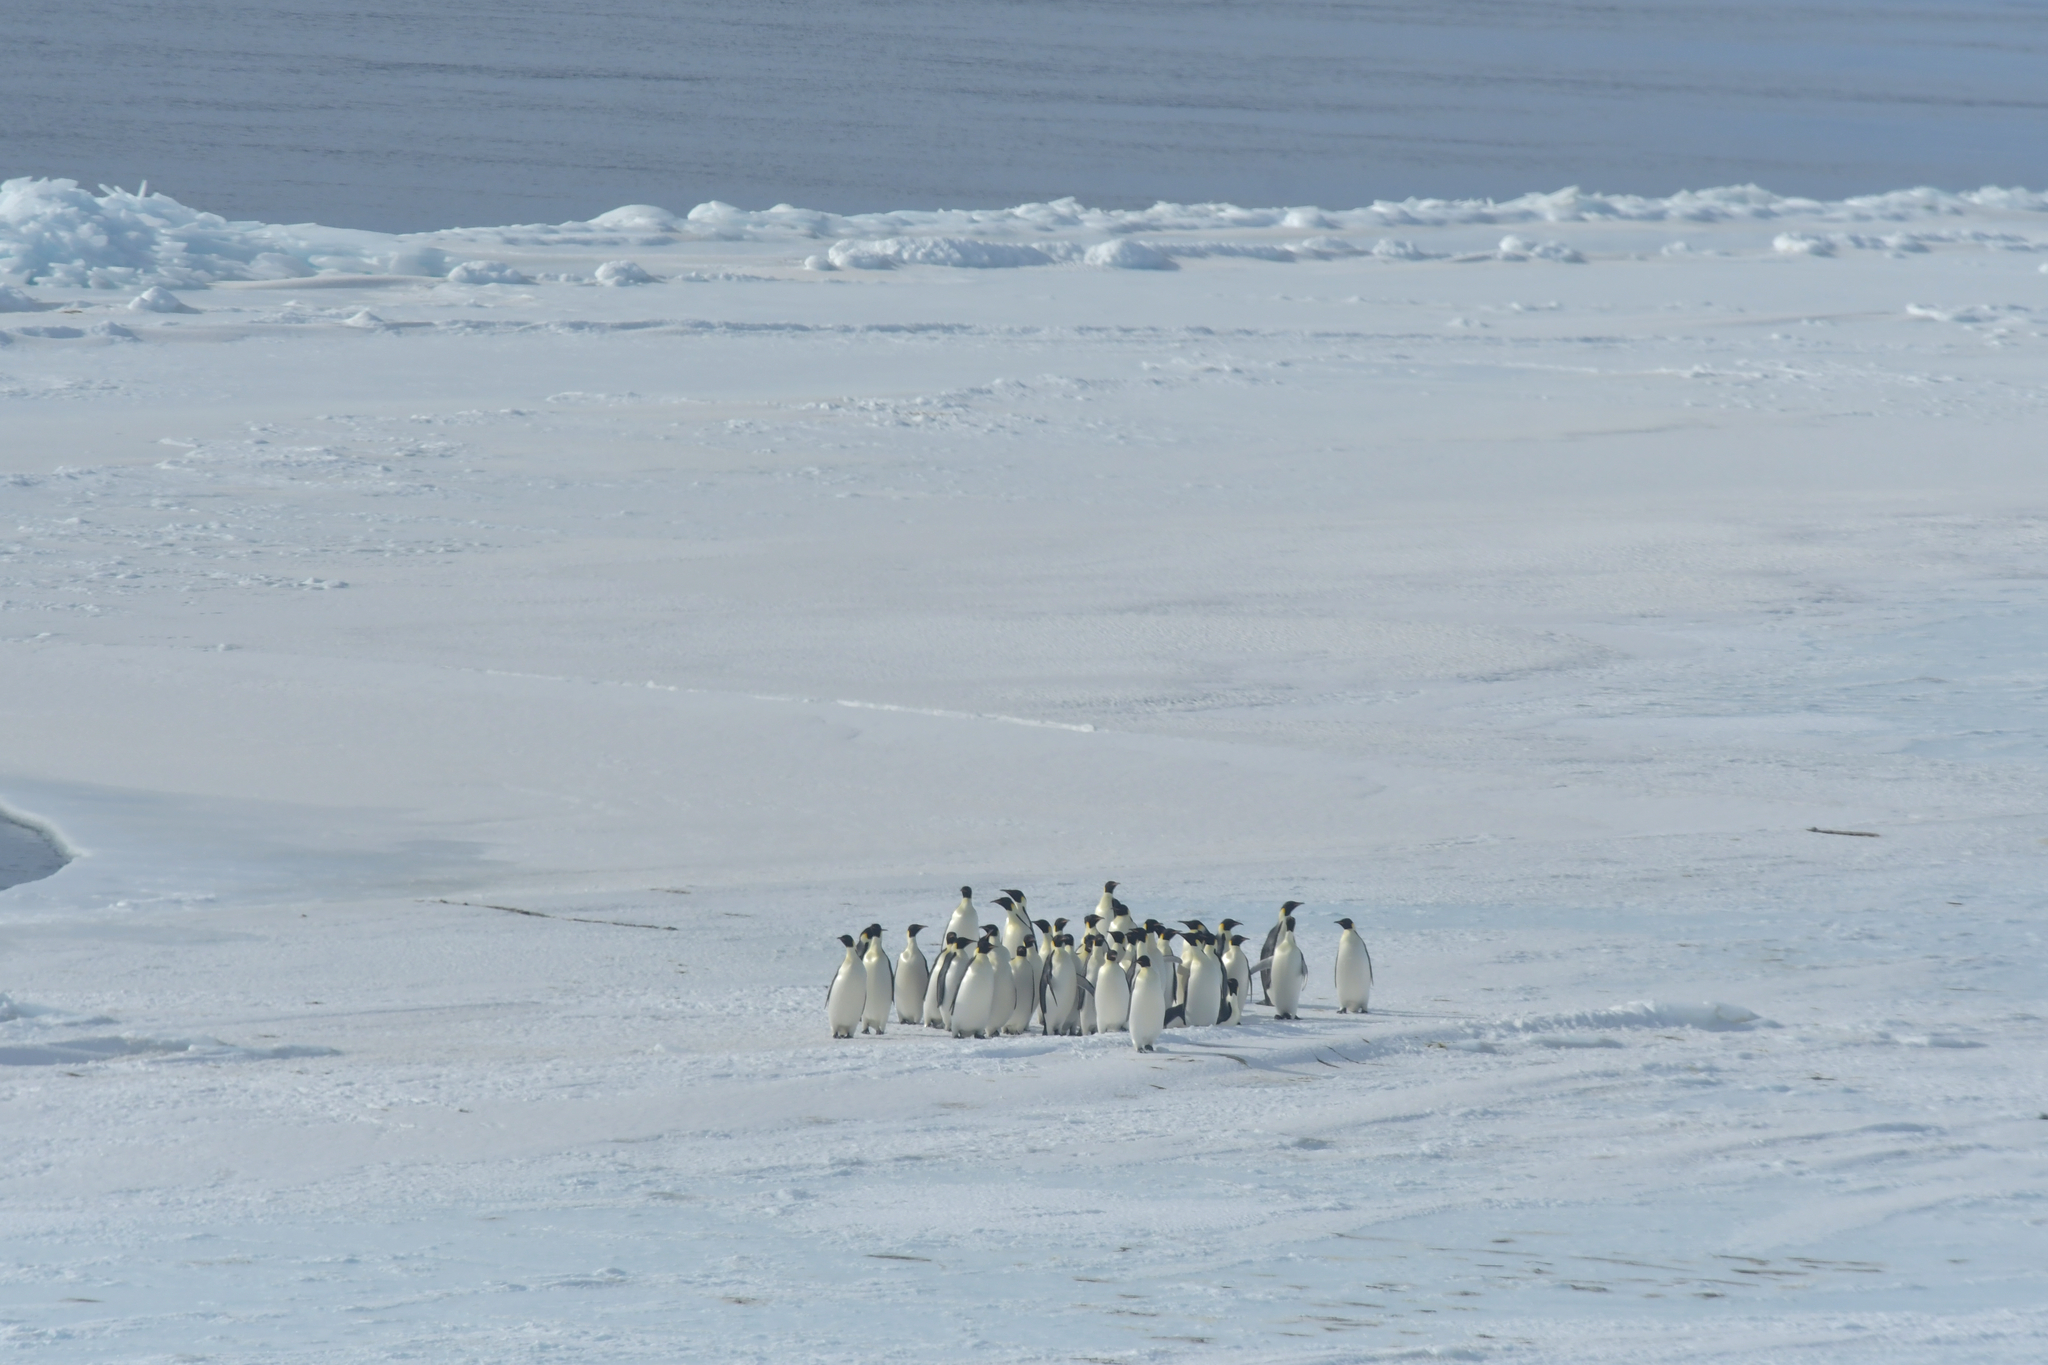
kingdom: Animalia
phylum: Chordata
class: Aves
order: Sphenisciformes
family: Spheniscidae
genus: Aptenodytes
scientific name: Aptenodytes forsteri
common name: Emperor penguin
